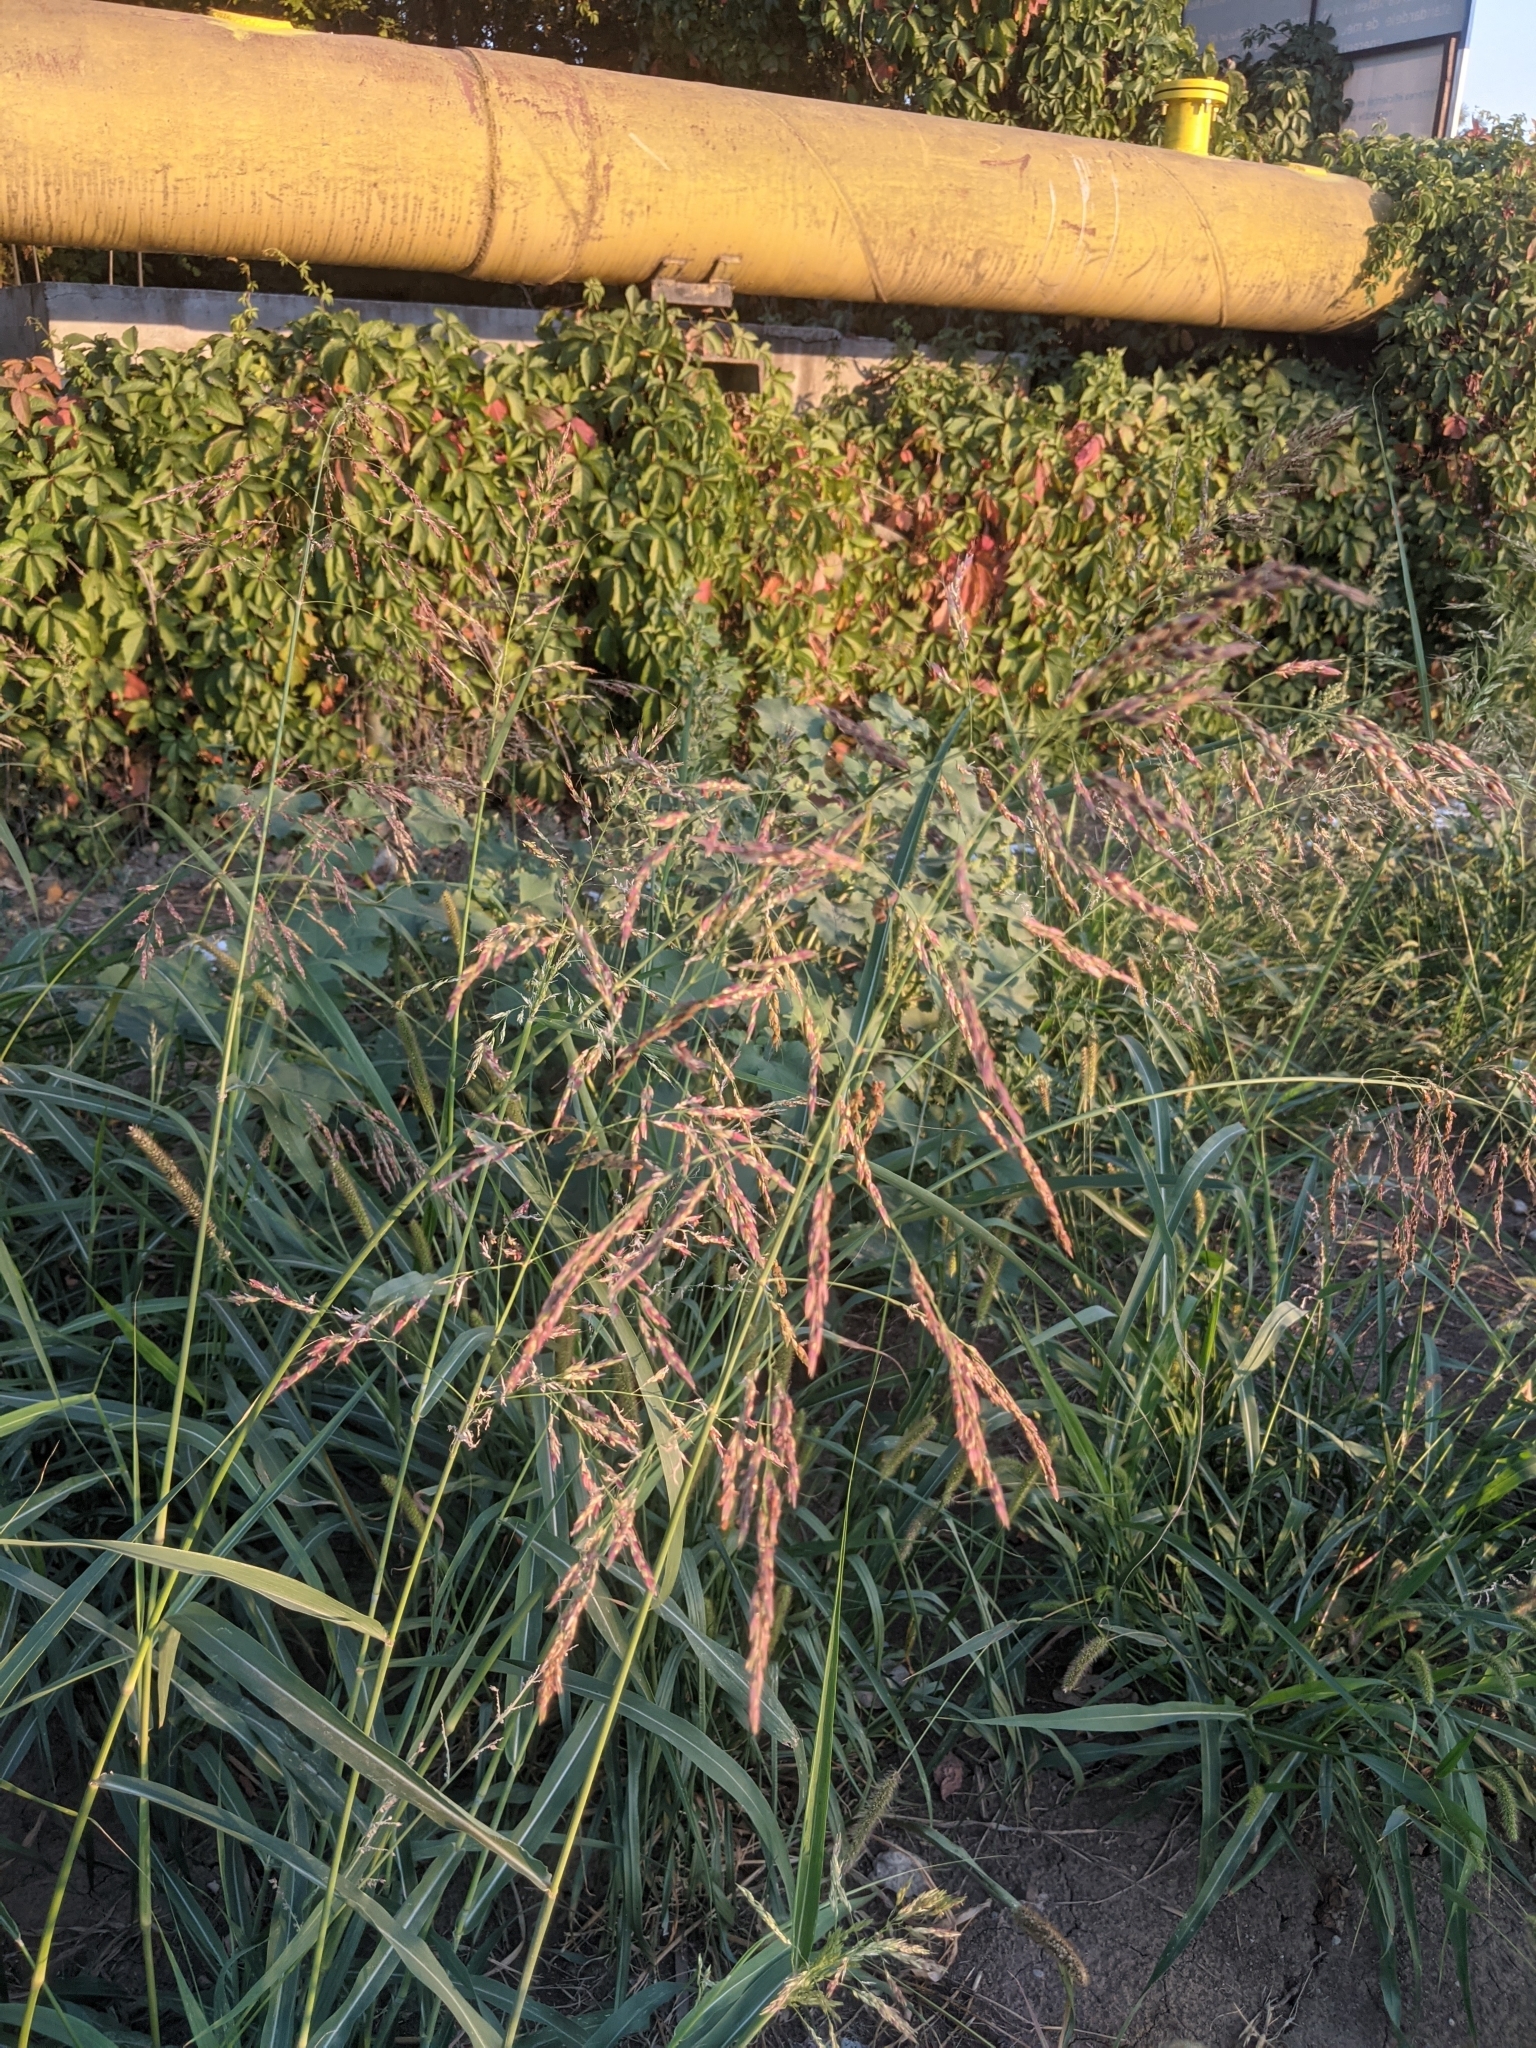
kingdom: Plantae
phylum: Tracheophyta
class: Liliopsida
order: Poales
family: Poaceae
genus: Sorghum
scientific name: Sorghum halepense
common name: Johnson-grass
